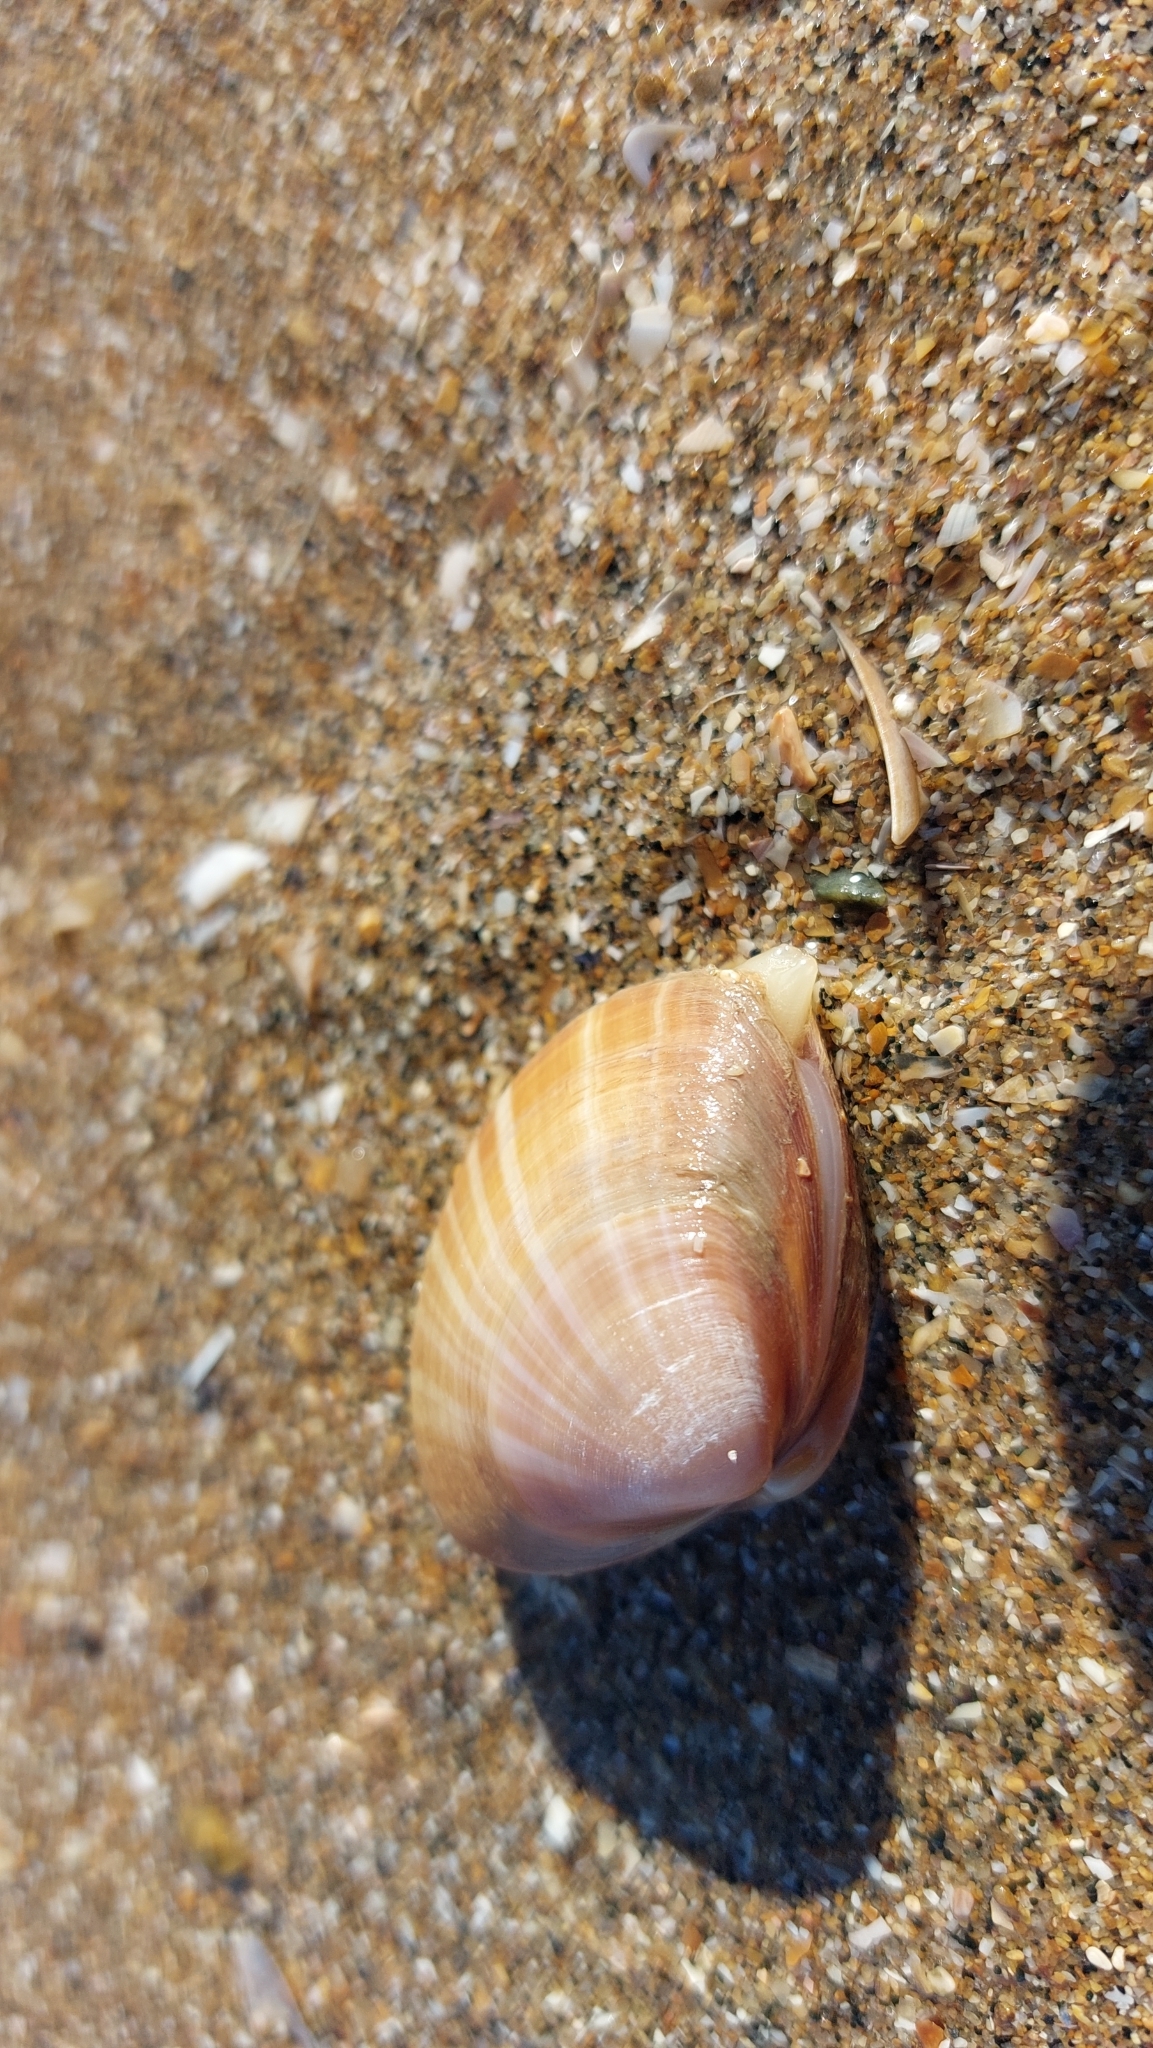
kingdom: Animalia
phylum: Mollusca
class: Bivalvia
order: Venerida
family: Mactridae
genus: Mactra
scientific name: Mactra stultorum
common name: Rayed trough shell
